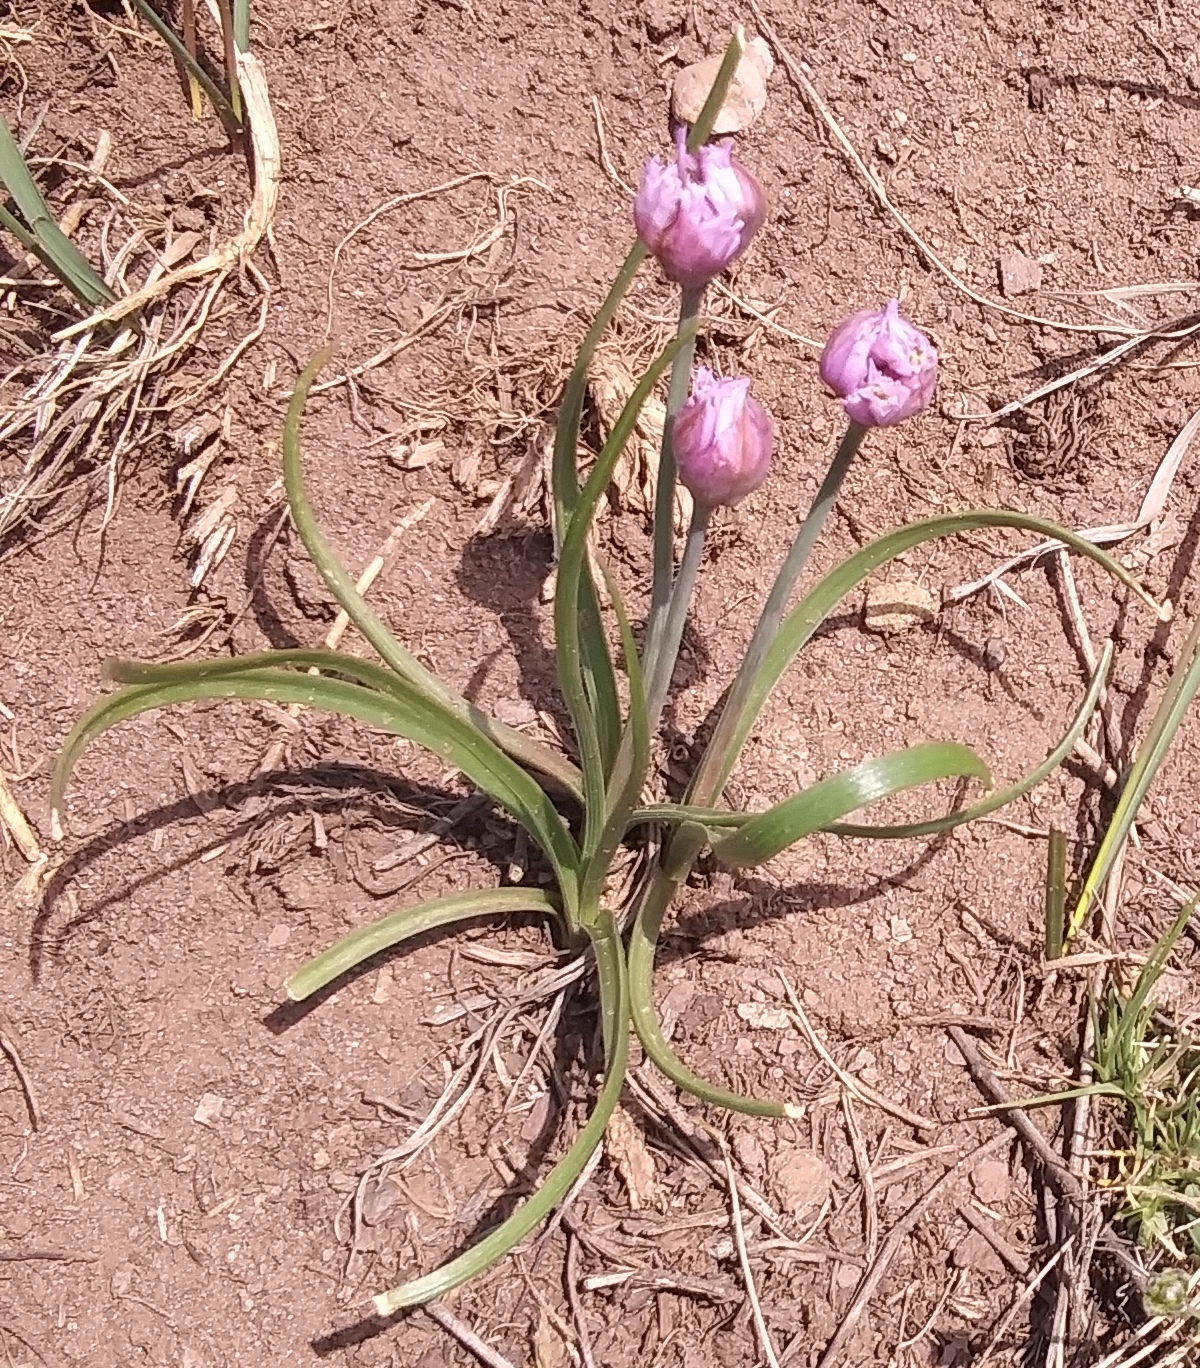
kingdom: Plantae
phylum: Tracheophyta
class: Liliopsida
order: Asparagales
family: Amaryllidaceae
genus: Allium
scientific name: Allium geyeri
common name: Geyer's onion
